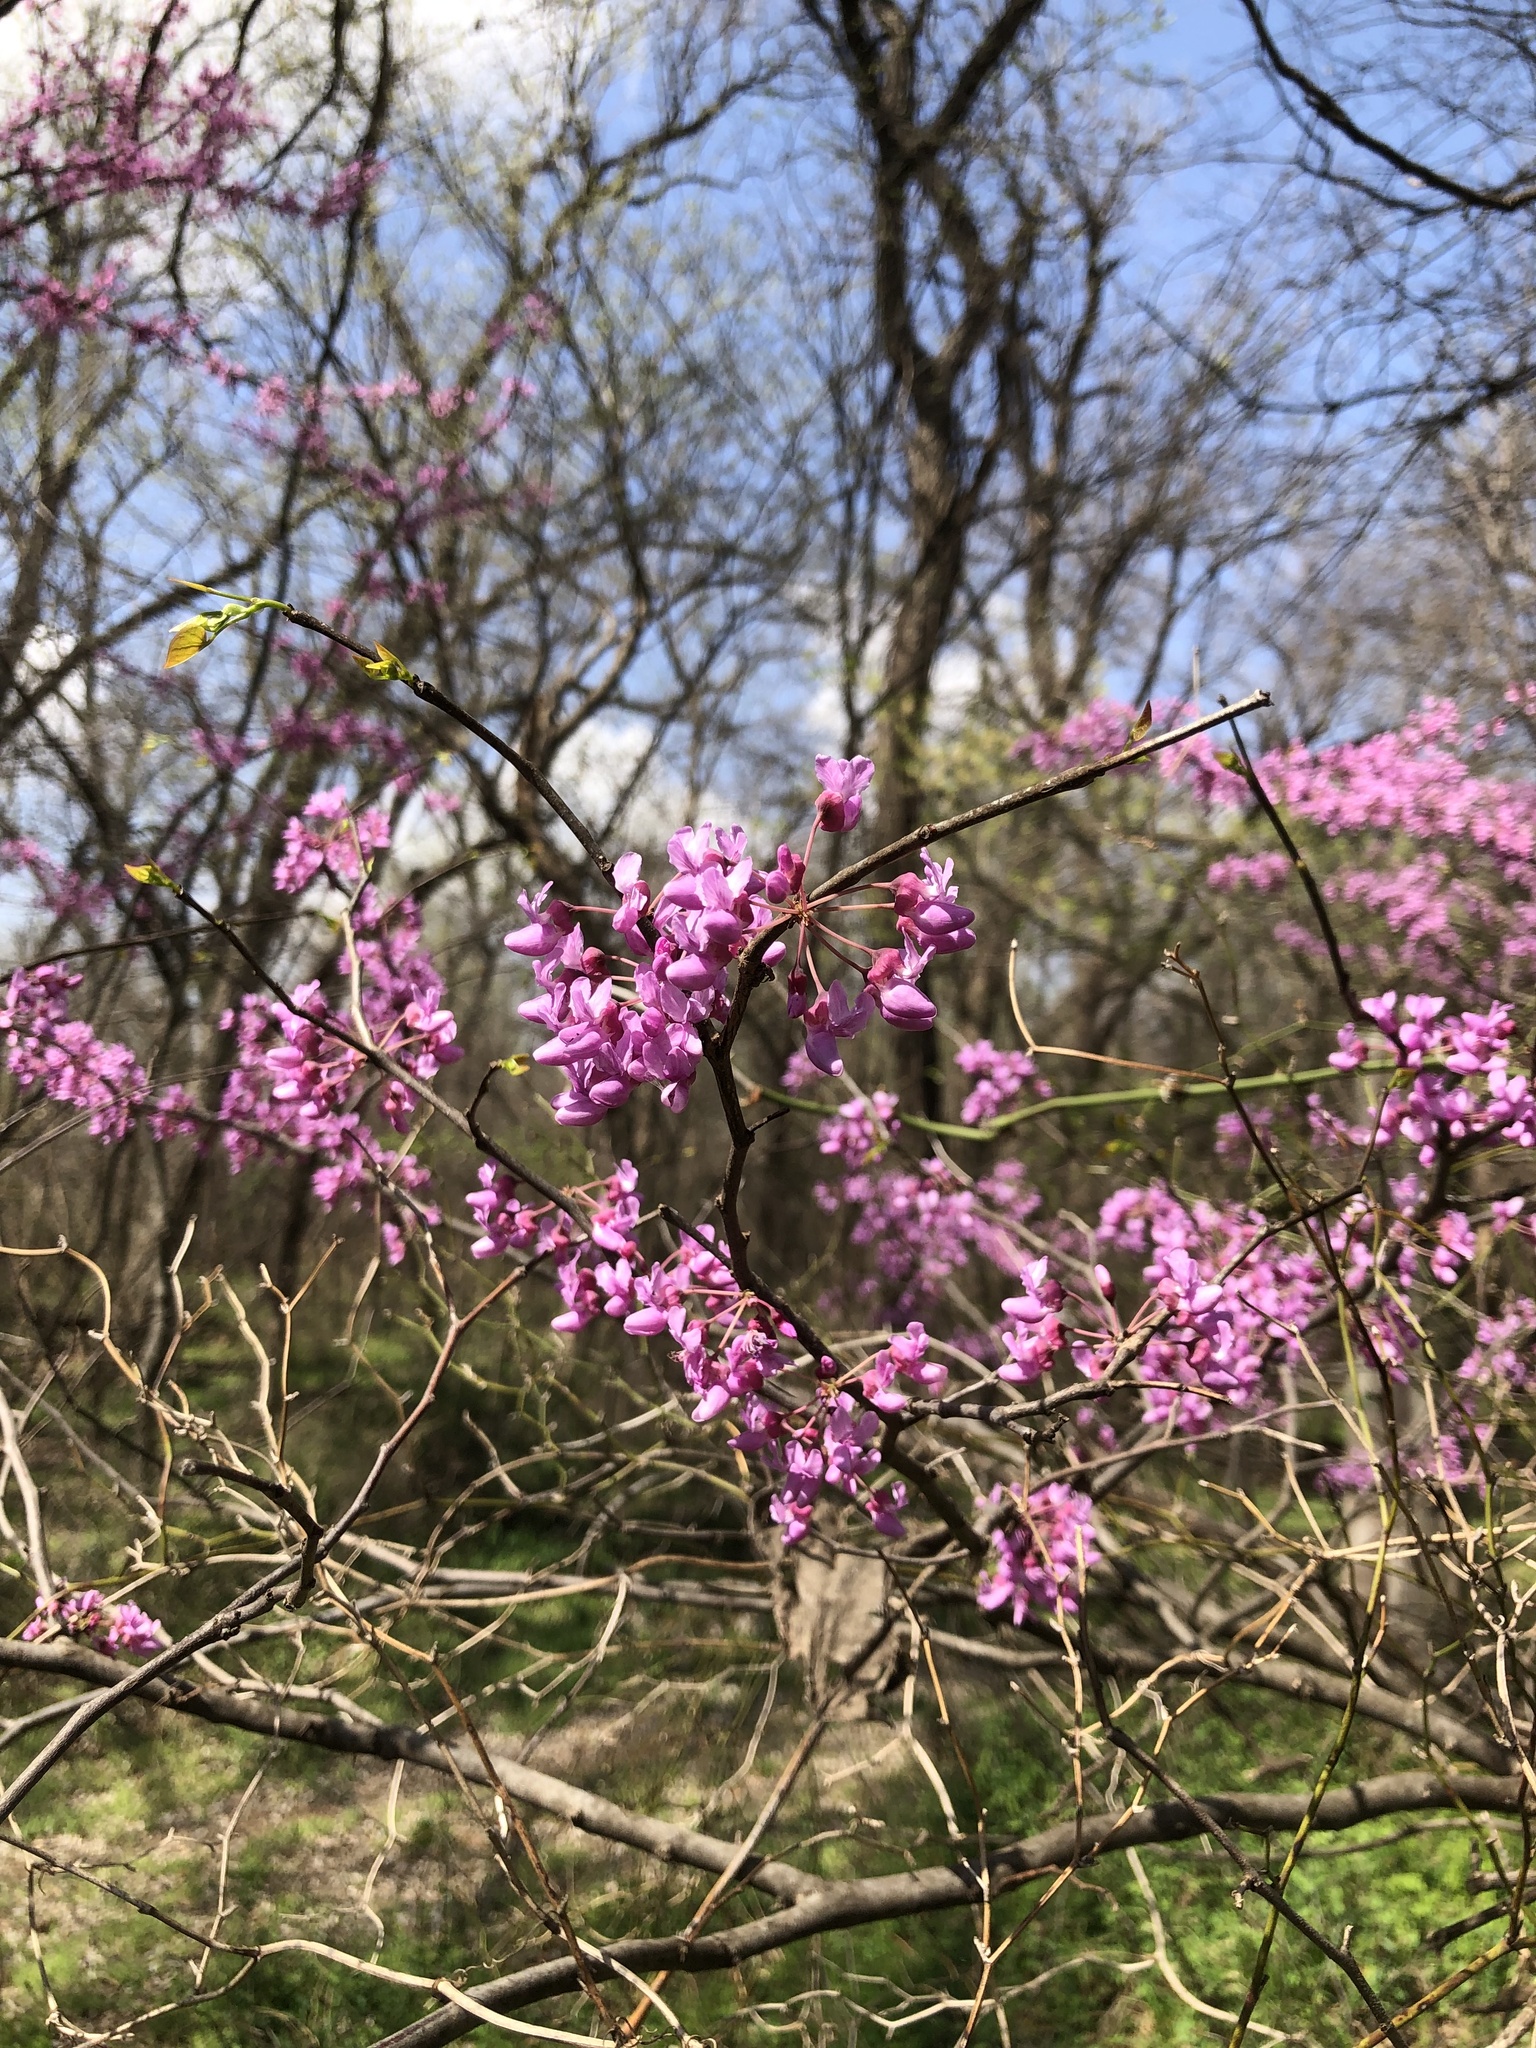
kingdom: Plantae
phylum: Tracheophyta
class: Magnoliopsida
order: Fabales
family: Fabaceae
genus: Cercis
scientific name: Cercis canadensis
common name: Eastern redbud
